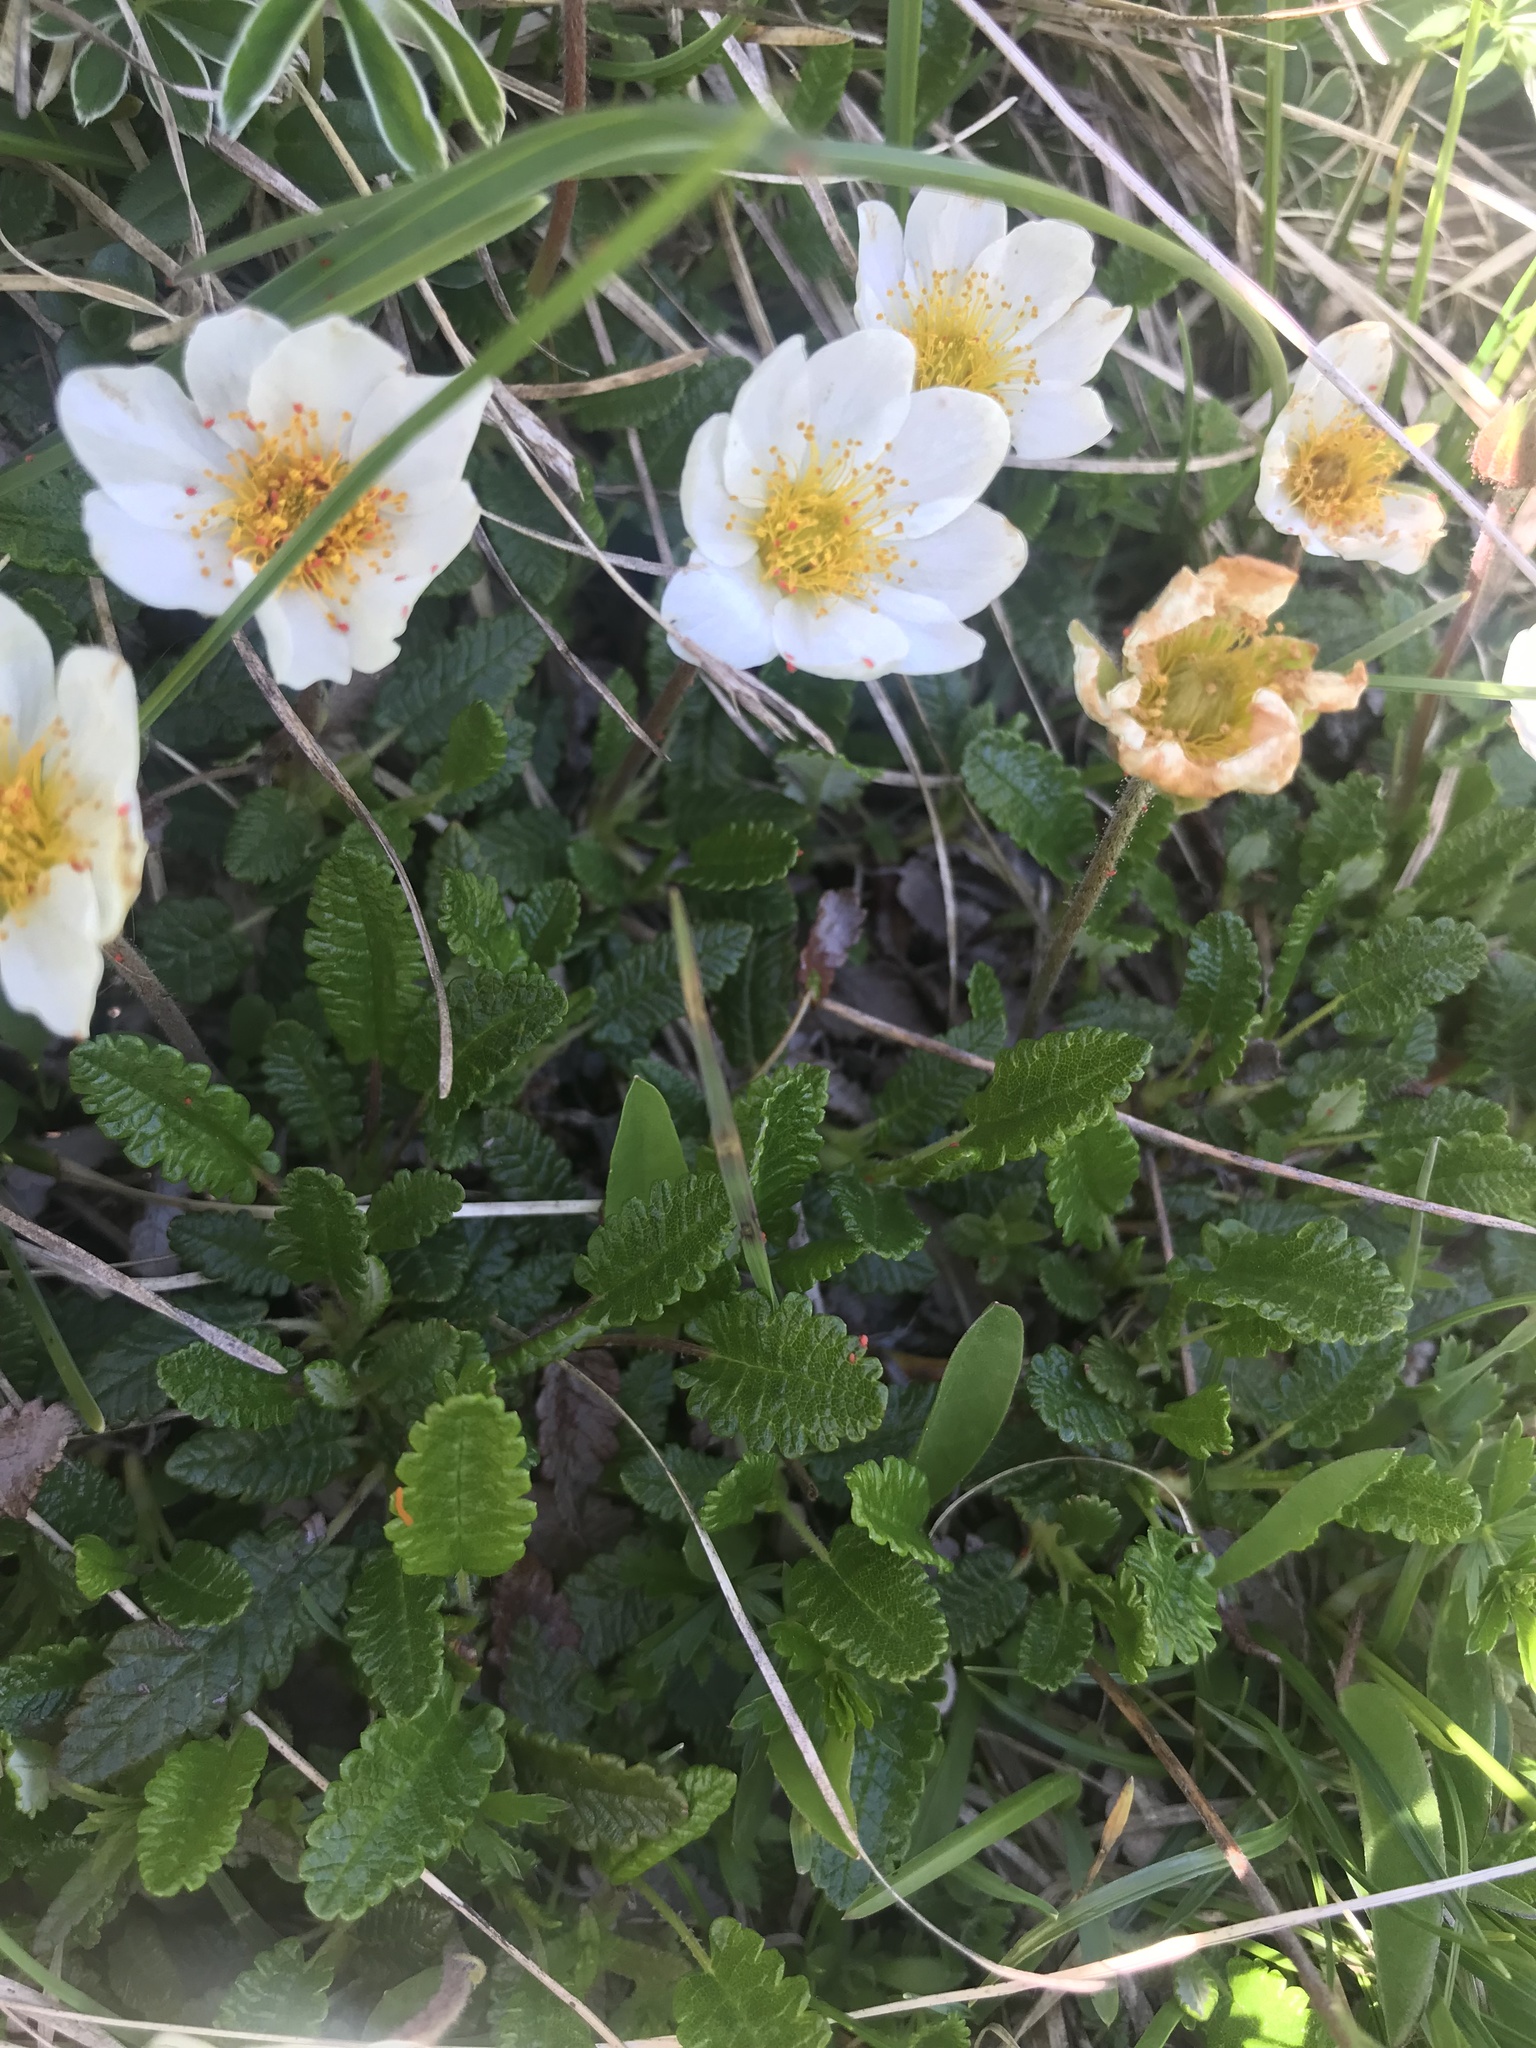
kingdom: Plantae
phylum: Tracheophyta
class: Magnoliopsida
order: Rosales
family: Rosaceae
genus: Dryas
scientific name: Dryas octopetala
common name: Eight-petal mountain-avens
